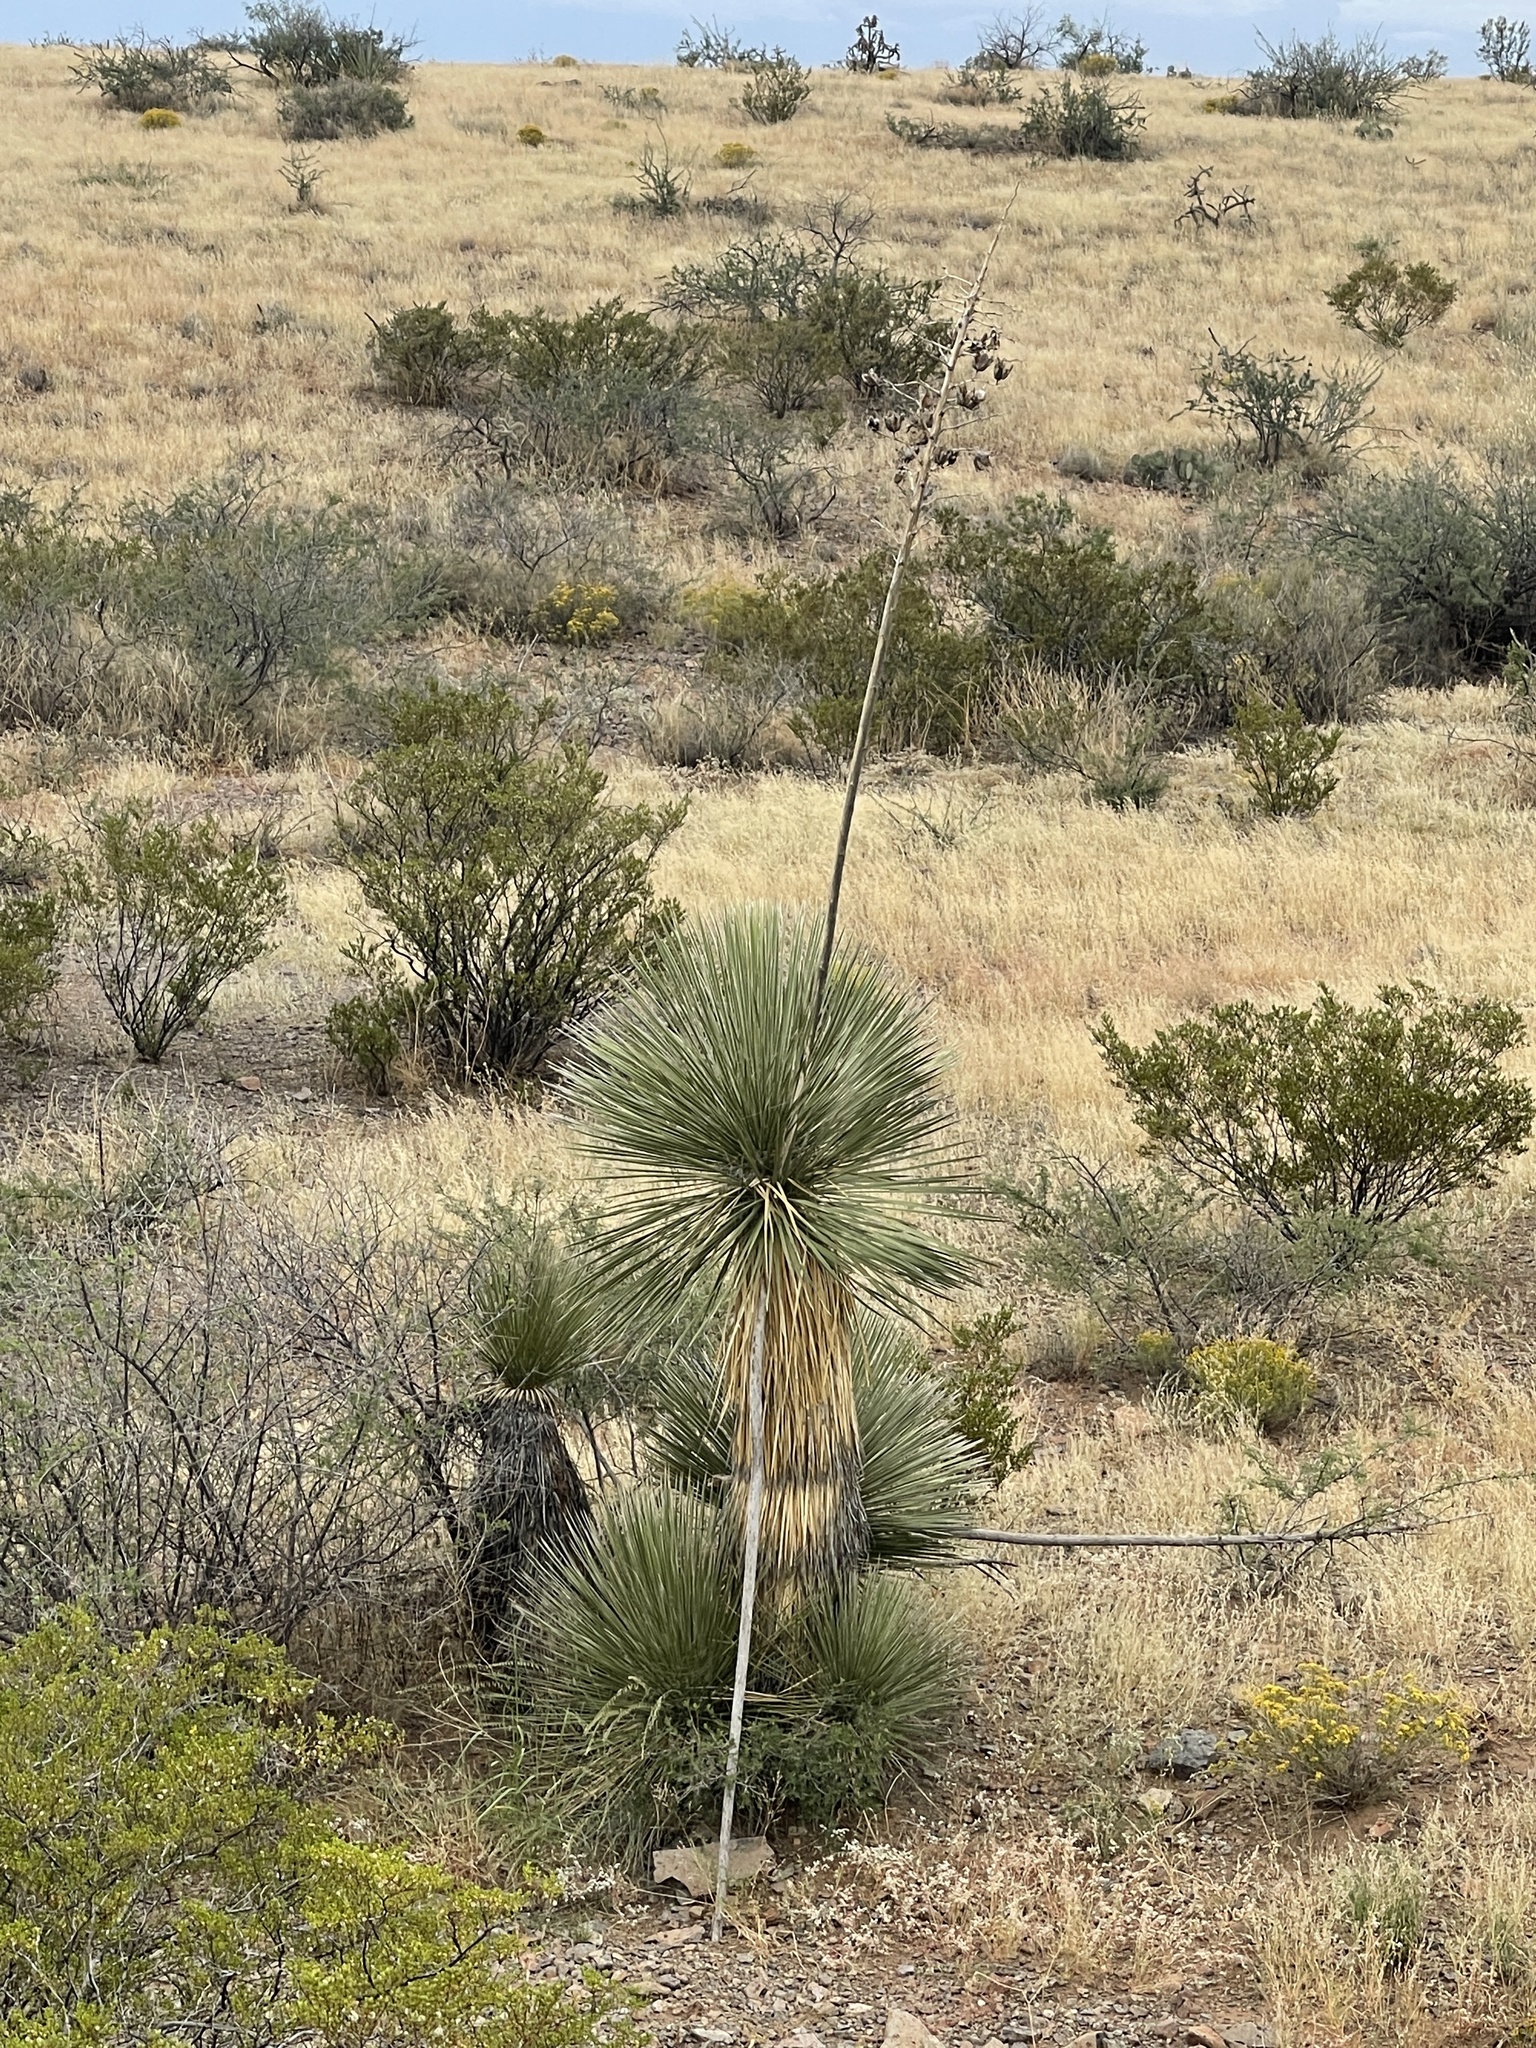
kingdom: Plantae
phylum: Tracheophyta
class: Liliopsida
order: Asparagales
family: Asparagaceae
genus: Yucca
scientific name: Yucca elata
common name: Palmella
